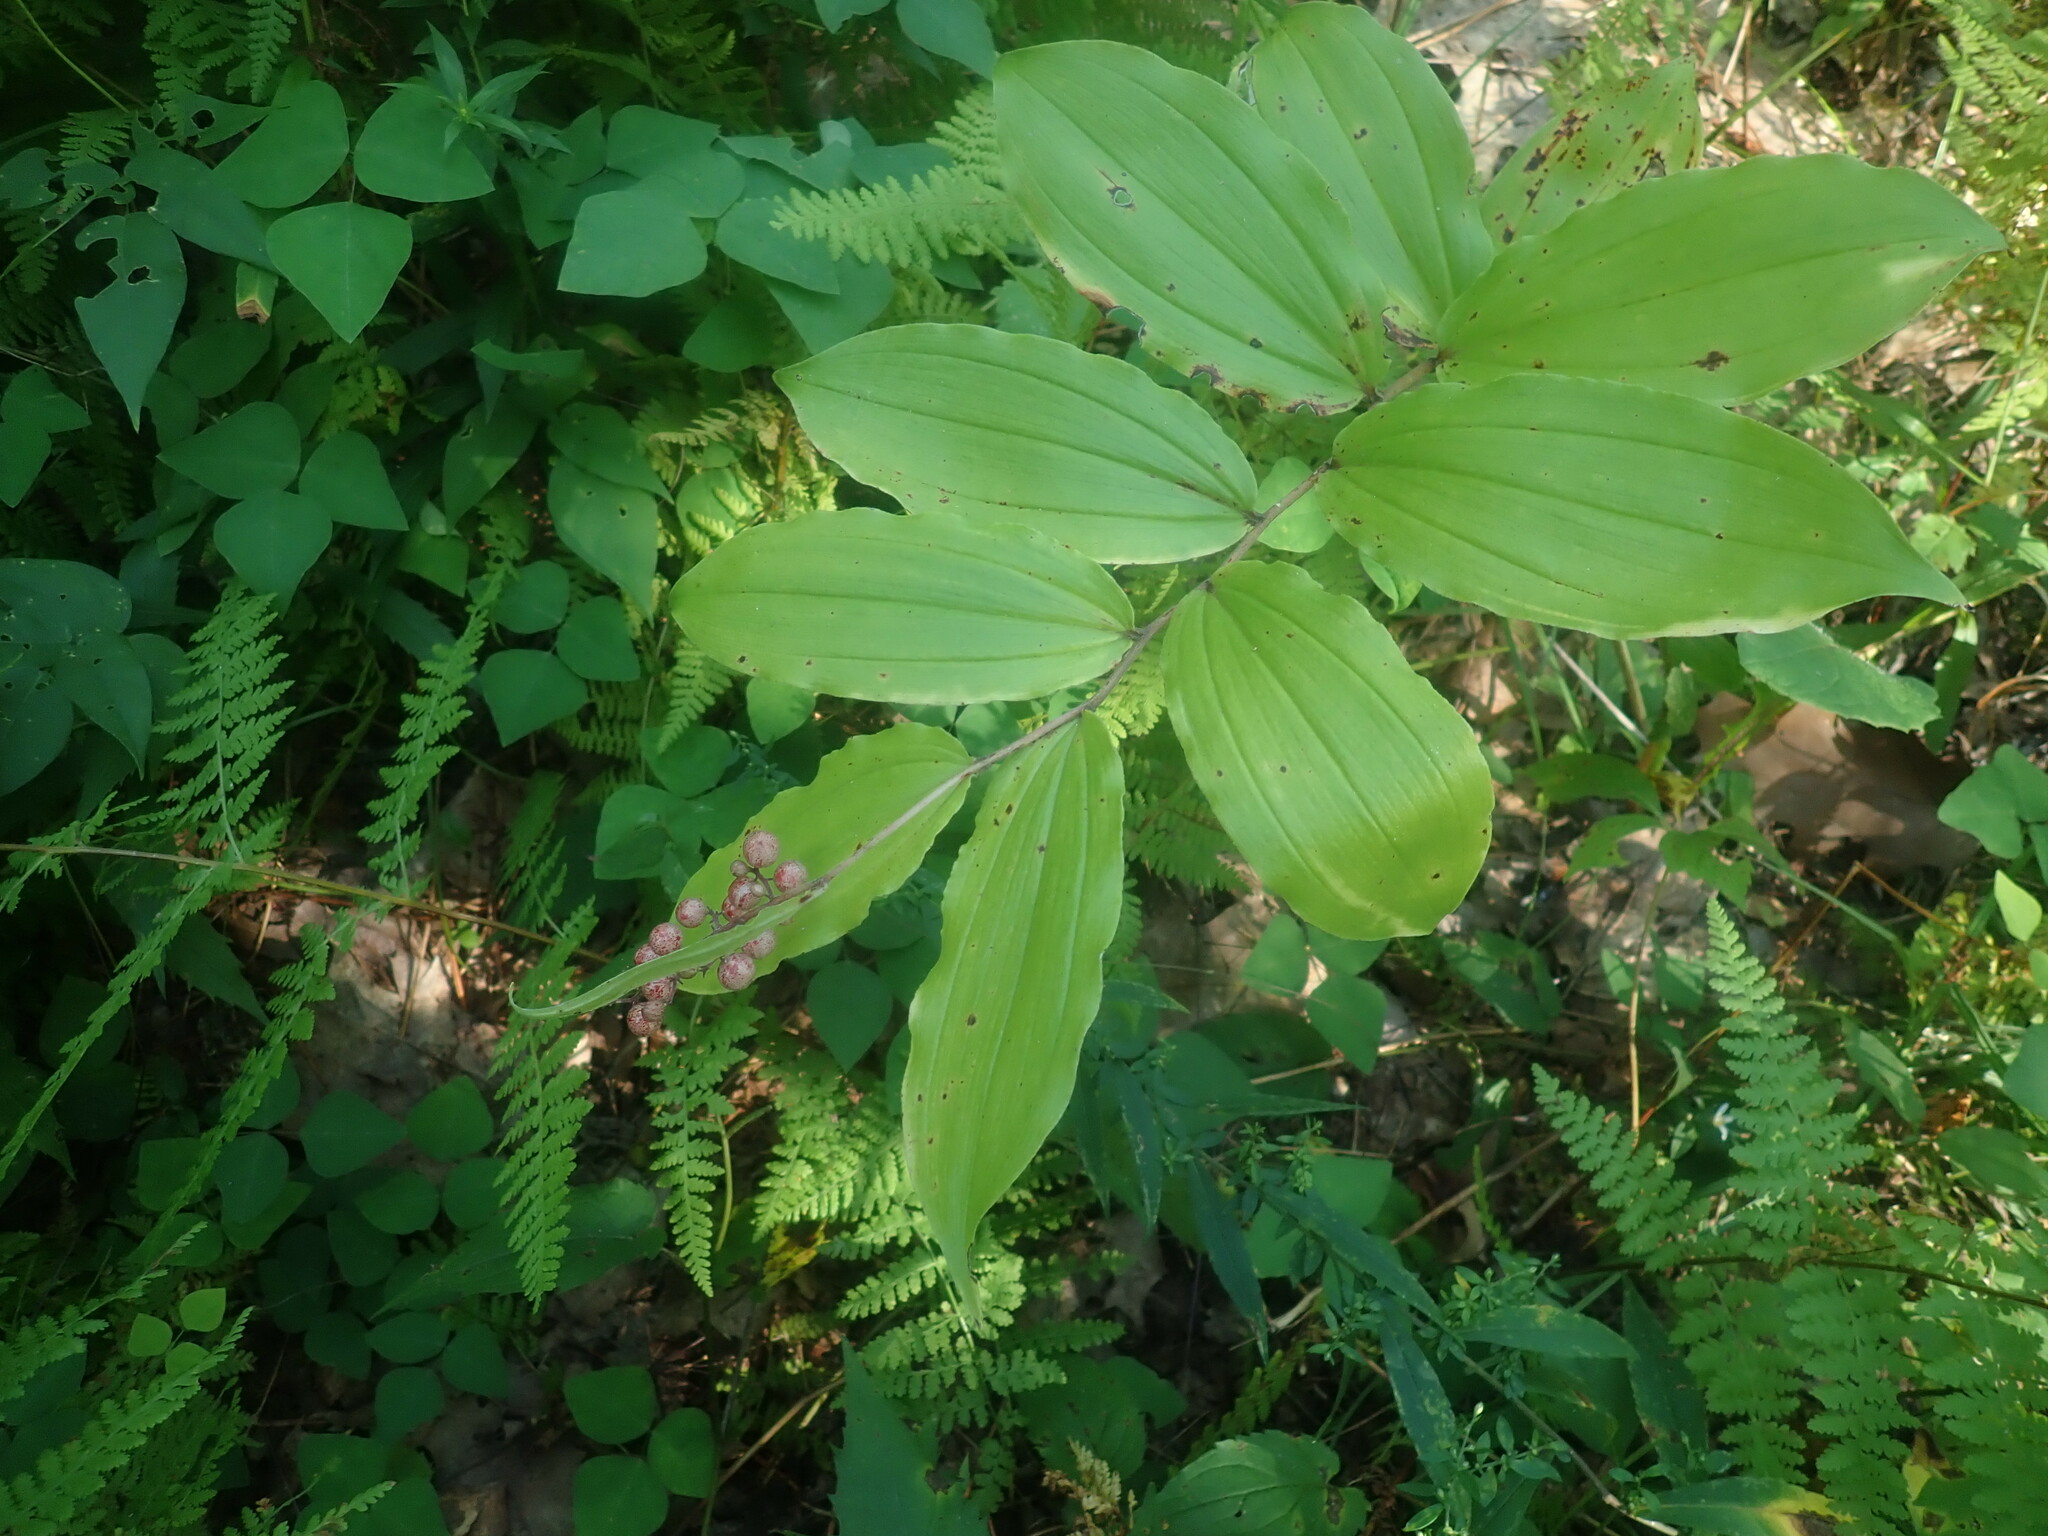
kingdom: Plantae
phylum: Tracheophyta
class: Liliopsida
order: Asparagales
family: Asparagaceae
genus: Maianthemum
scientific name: Maianthemum racemosum
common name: False spikenard
